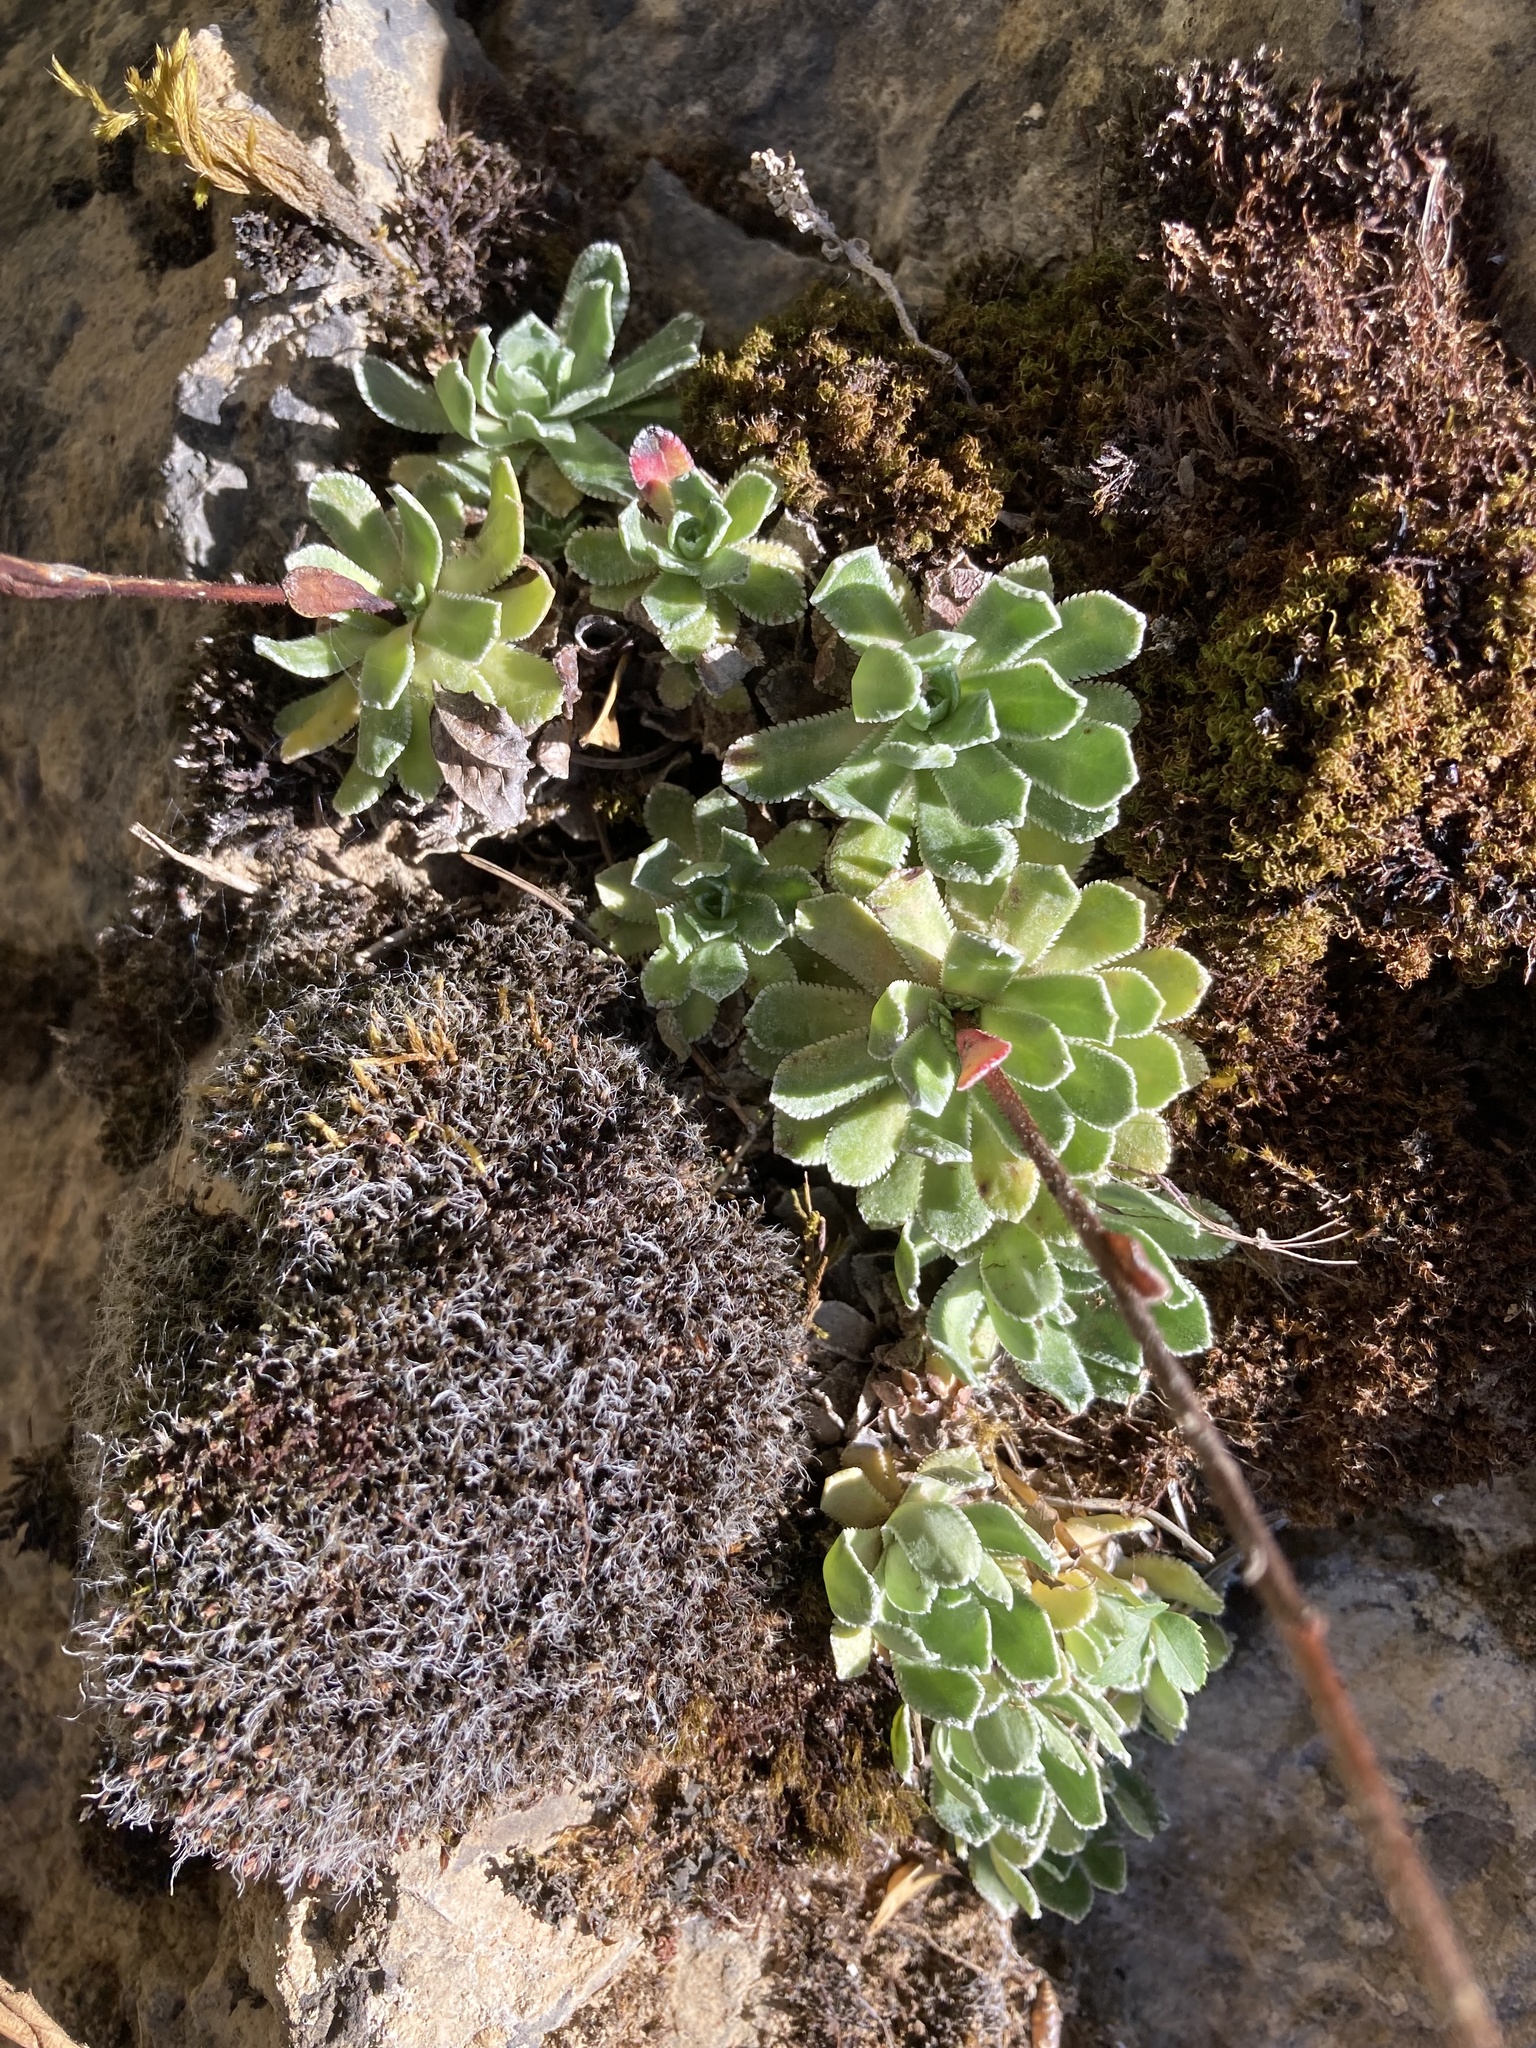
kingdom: Plantae
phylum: Tracheophyta
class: Magnoliopsida
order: Saxifragales
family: Saxifragaceae
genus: Saxifraga
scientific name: Saxifraga paniculata
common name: Livelong saxifrage
